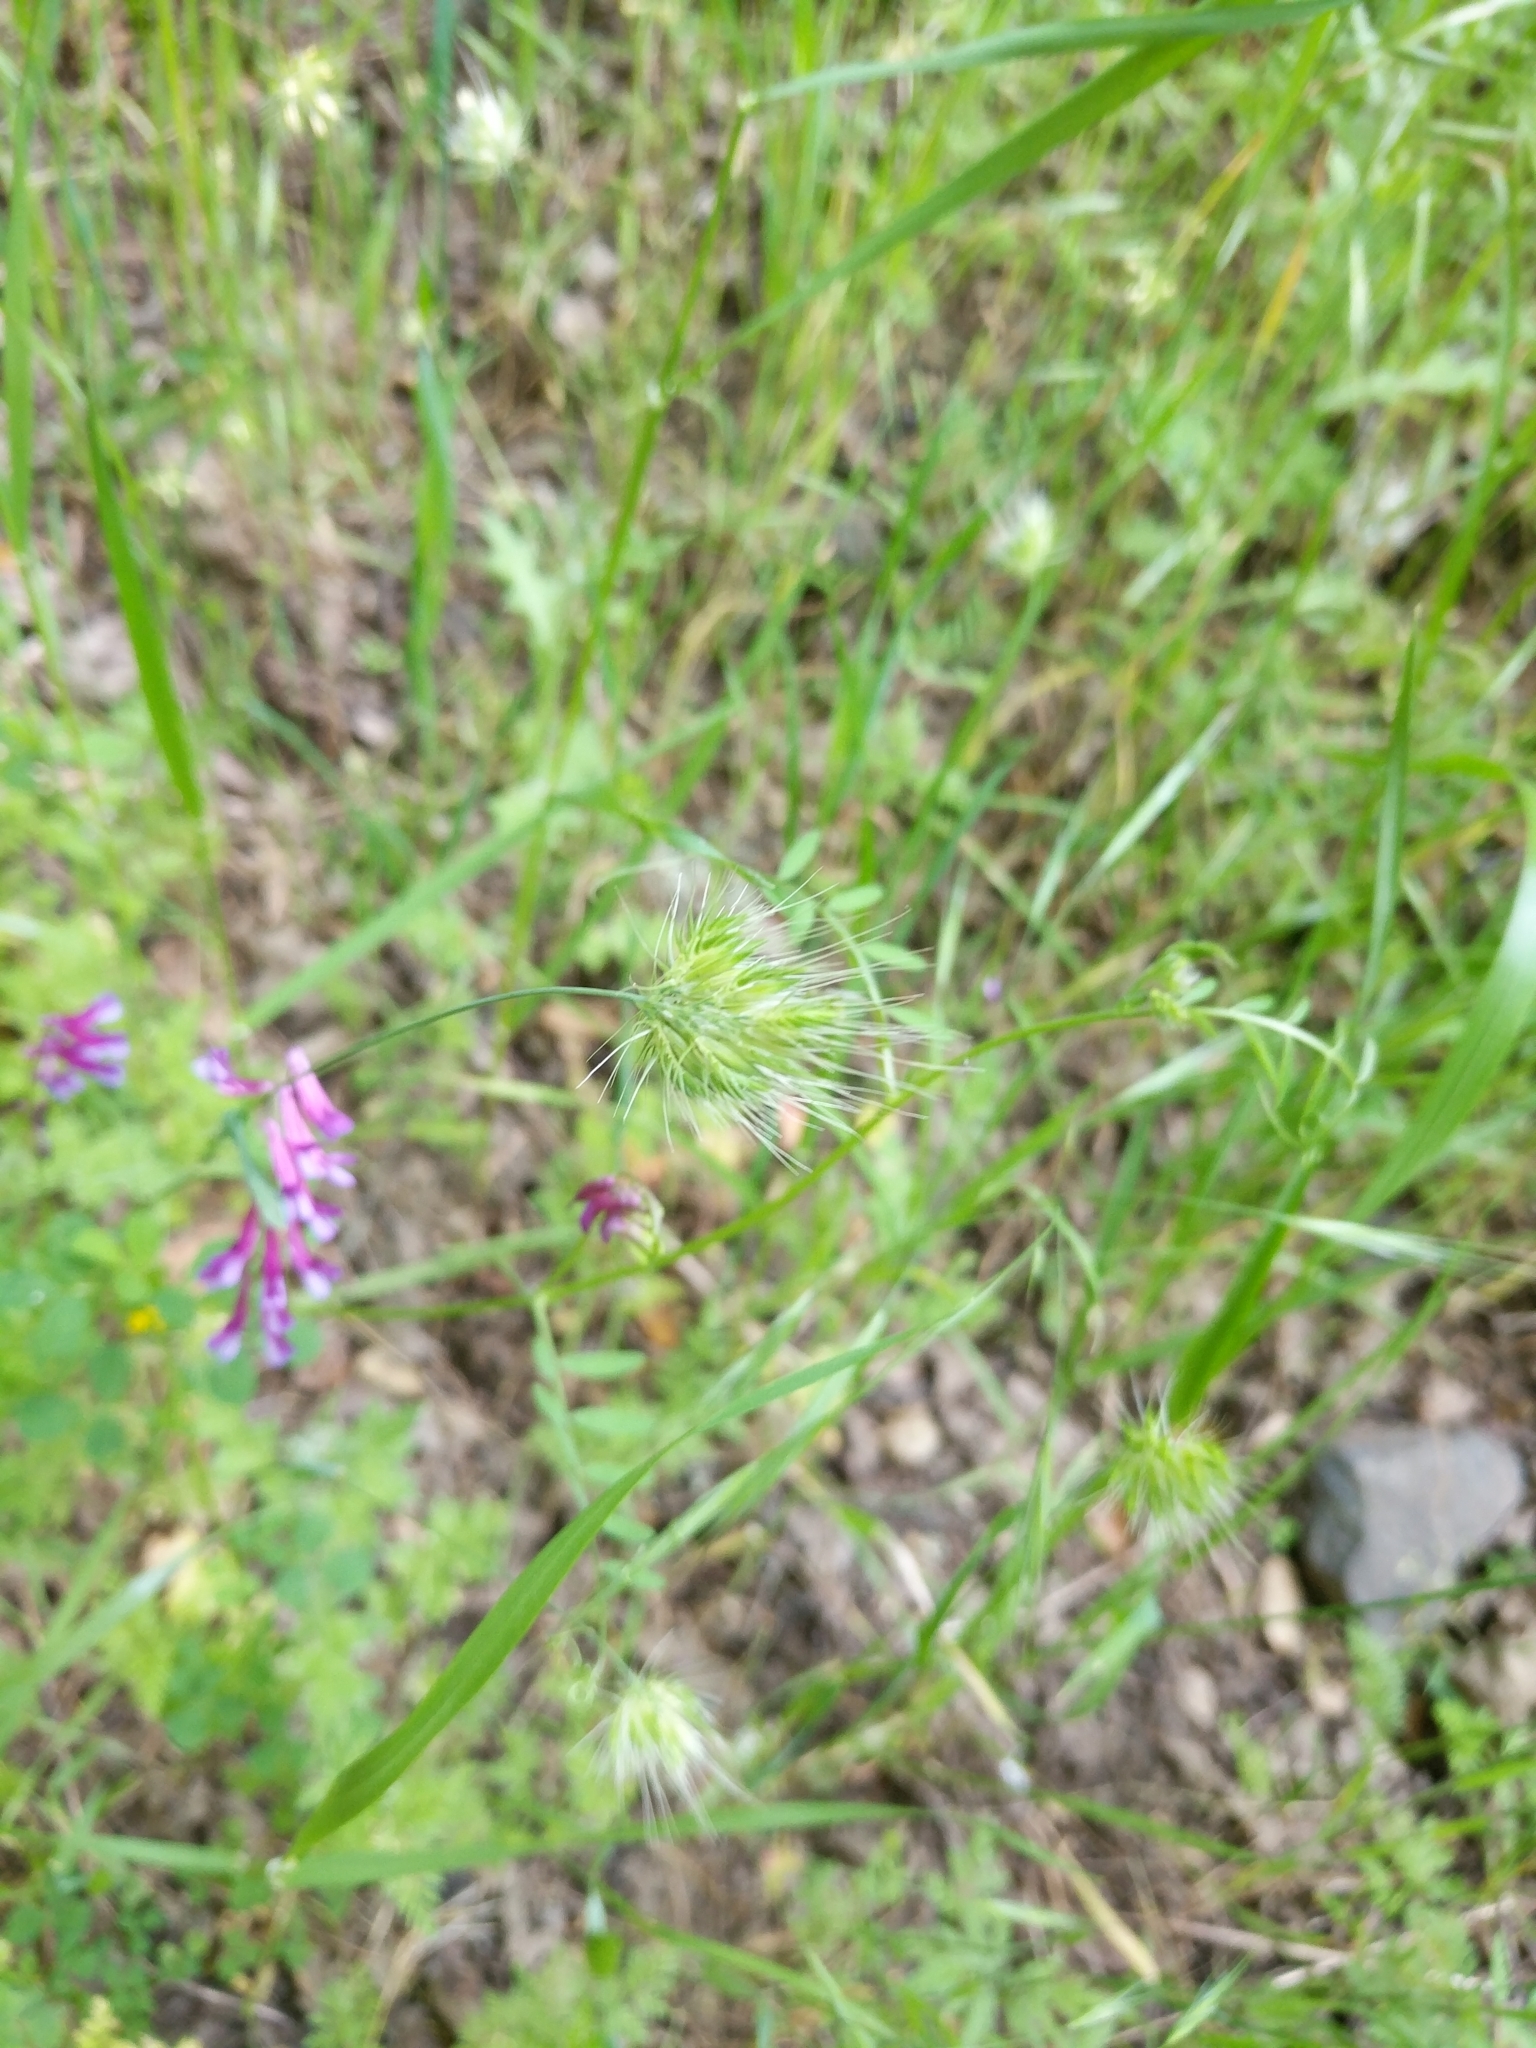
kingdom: Plantae
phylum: Tracheophyta
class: Liliopsida
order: Poales
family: Poaceae
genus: Cynosurus
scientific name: Cynosurus echinatus
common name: Rough dog's-tail
